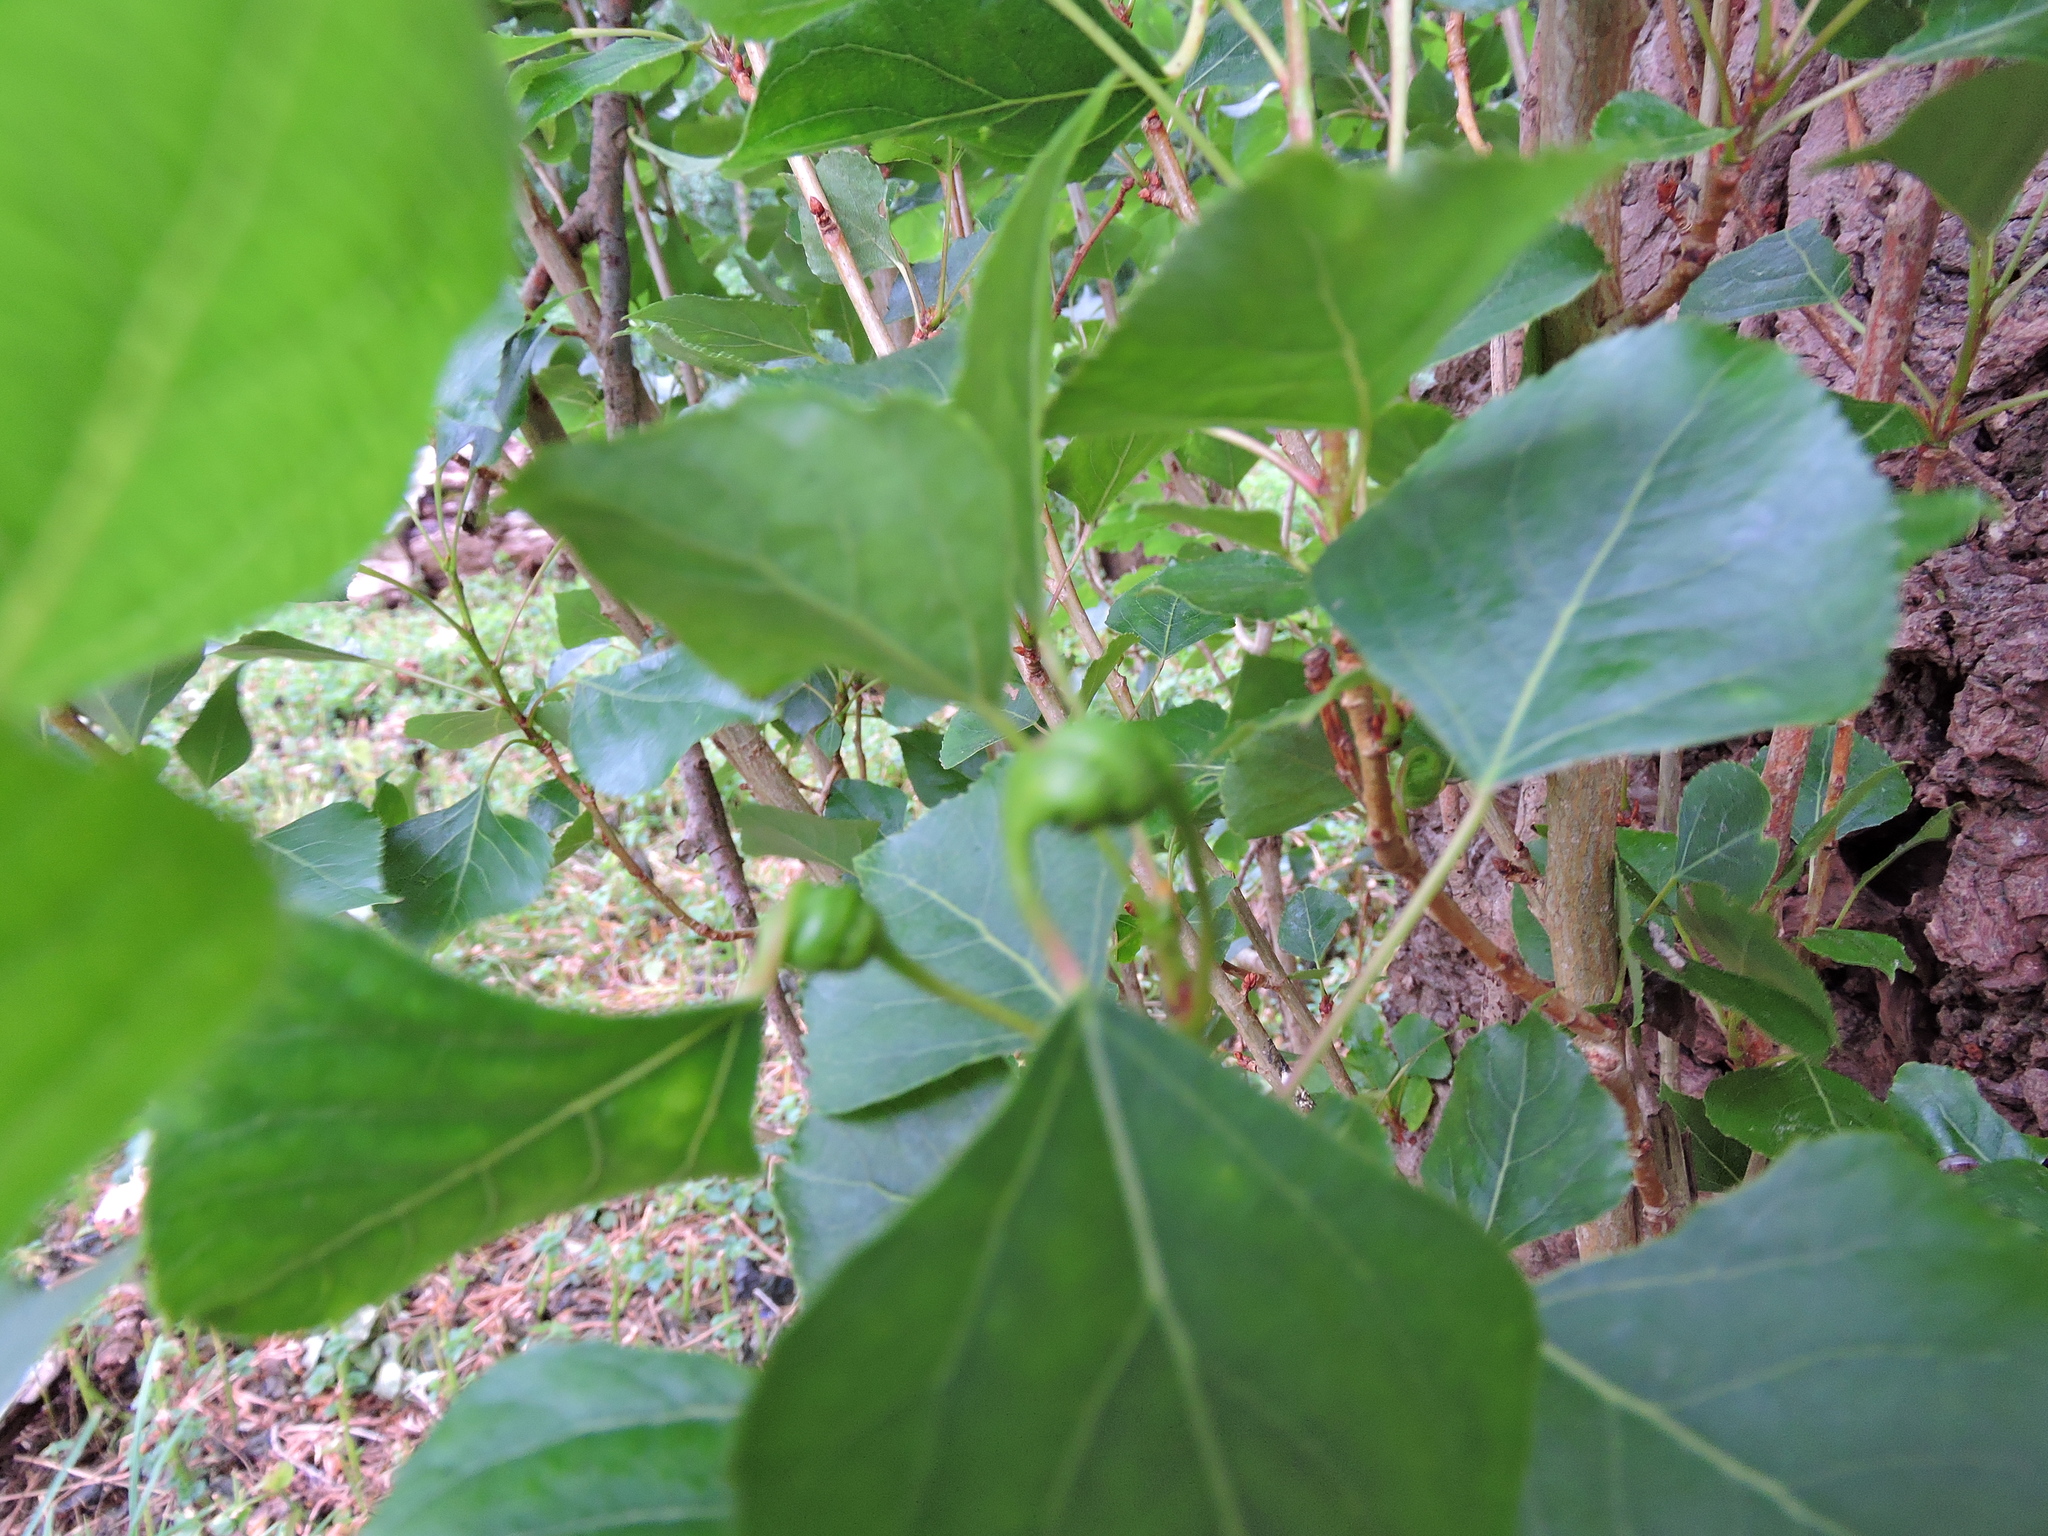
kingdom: Animalia
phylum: Arthropoda
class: Insecta
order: Hemiptera
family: Aphididae
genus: Pemphigus
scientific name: Pemphigus spyrothecae
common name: Aphid
